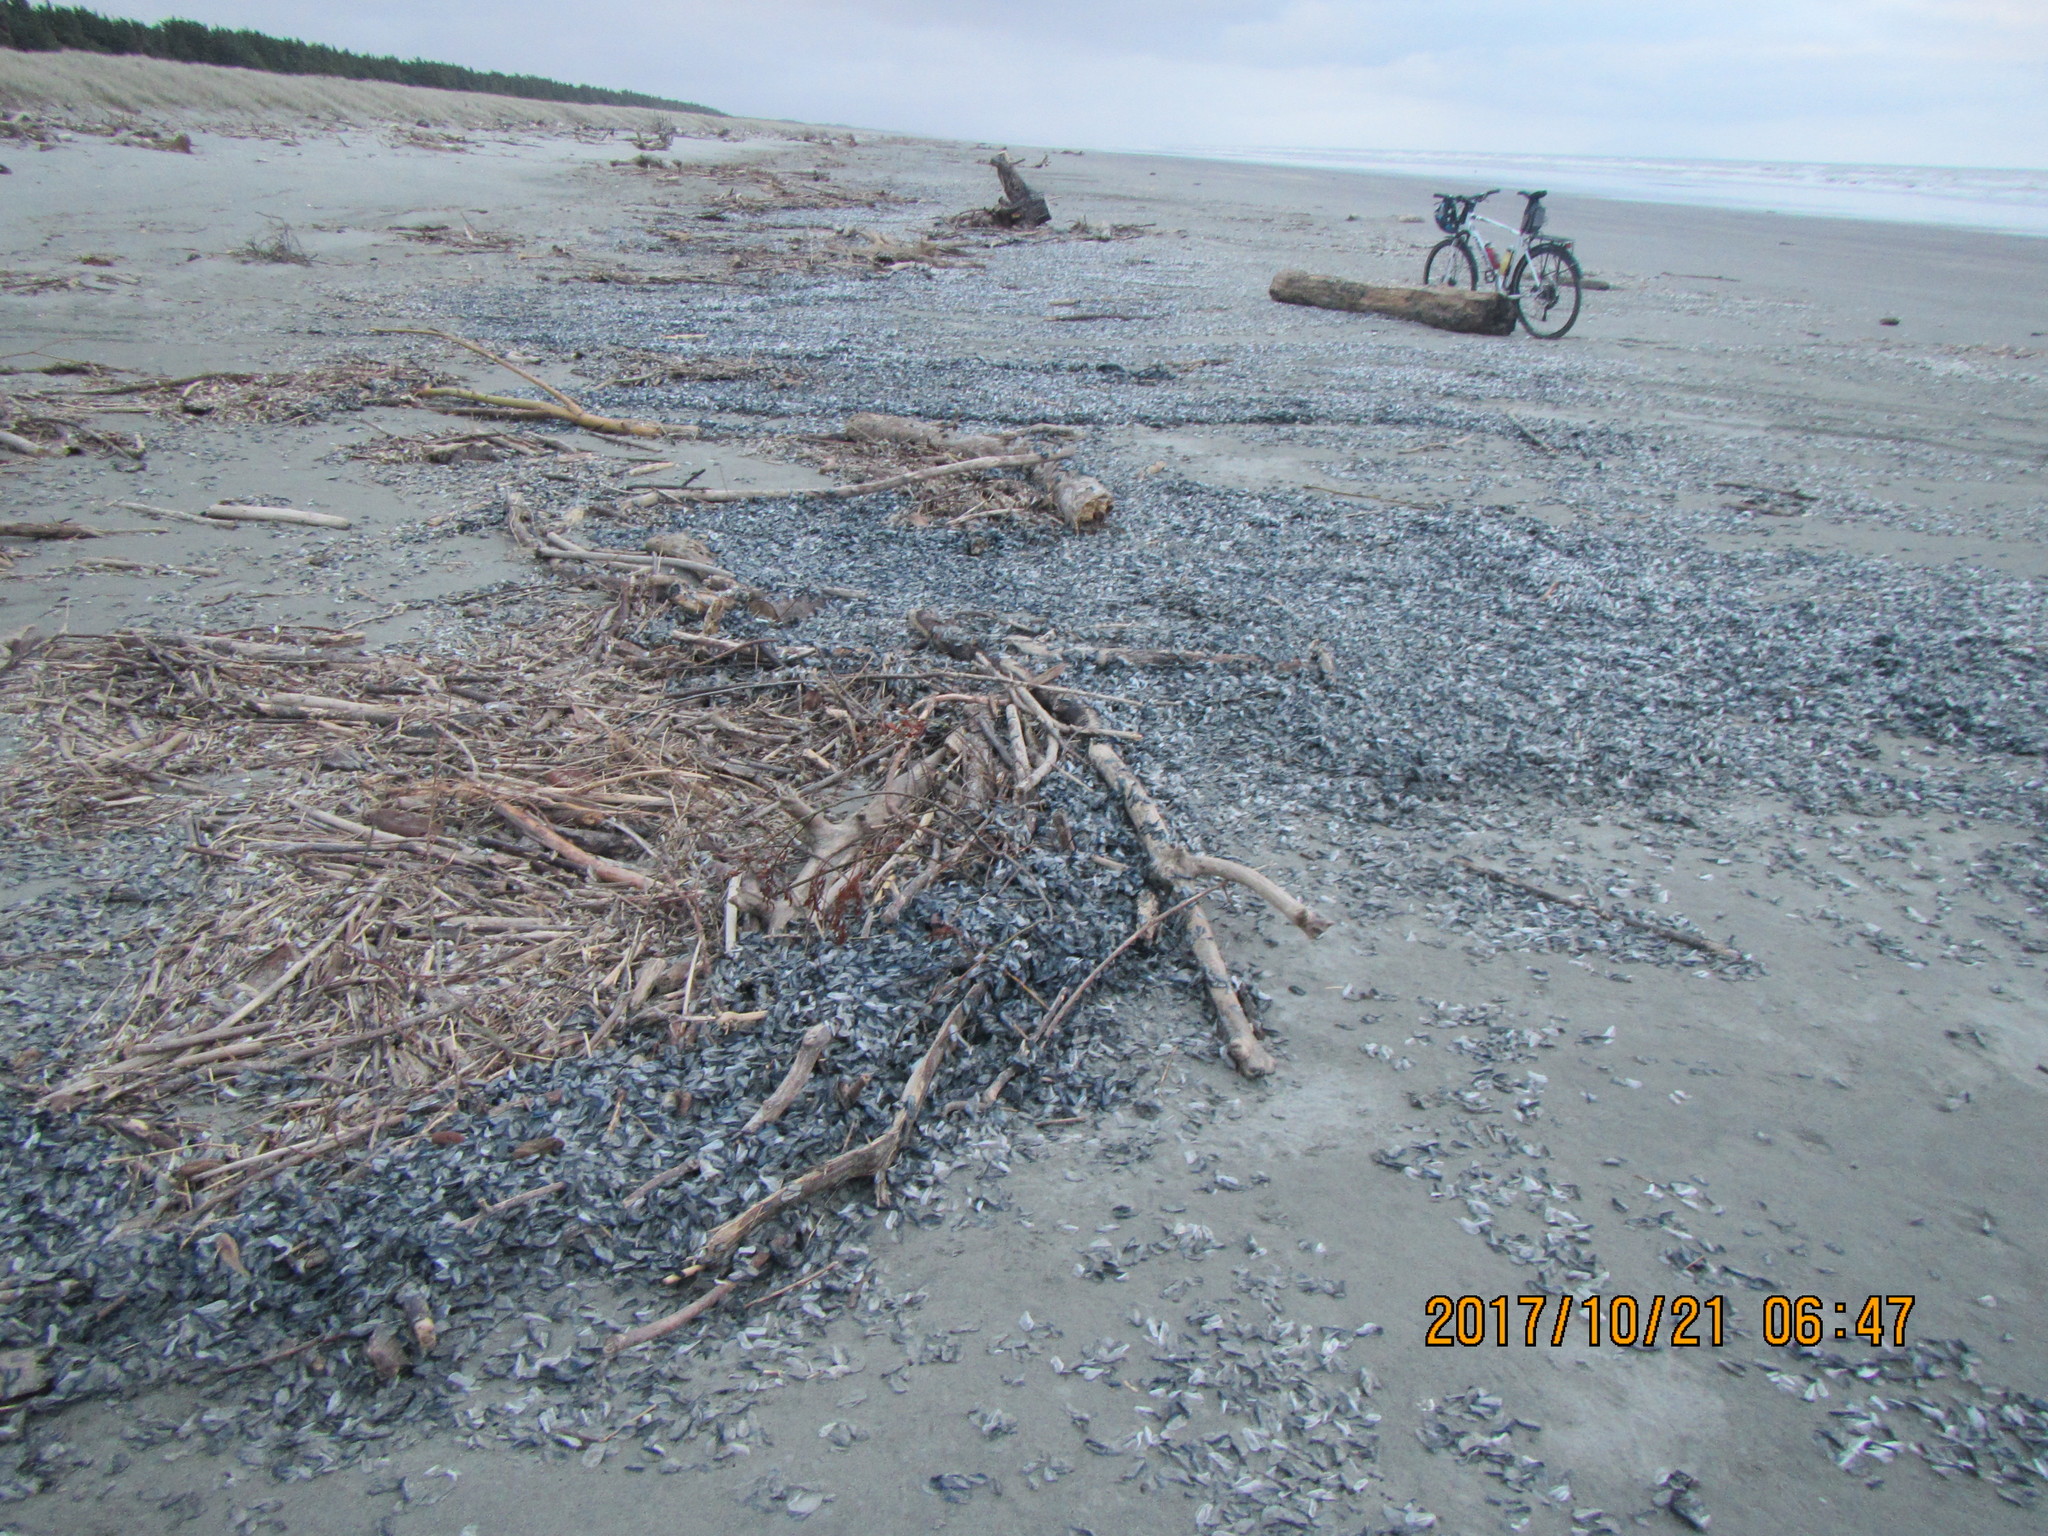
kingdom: Animalia
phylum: Cnidaria
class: Hydrozoa
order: Anthoathecata
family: Porpitidae
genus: Velella
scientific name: Velella velella
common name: By-the-wind-sailor
